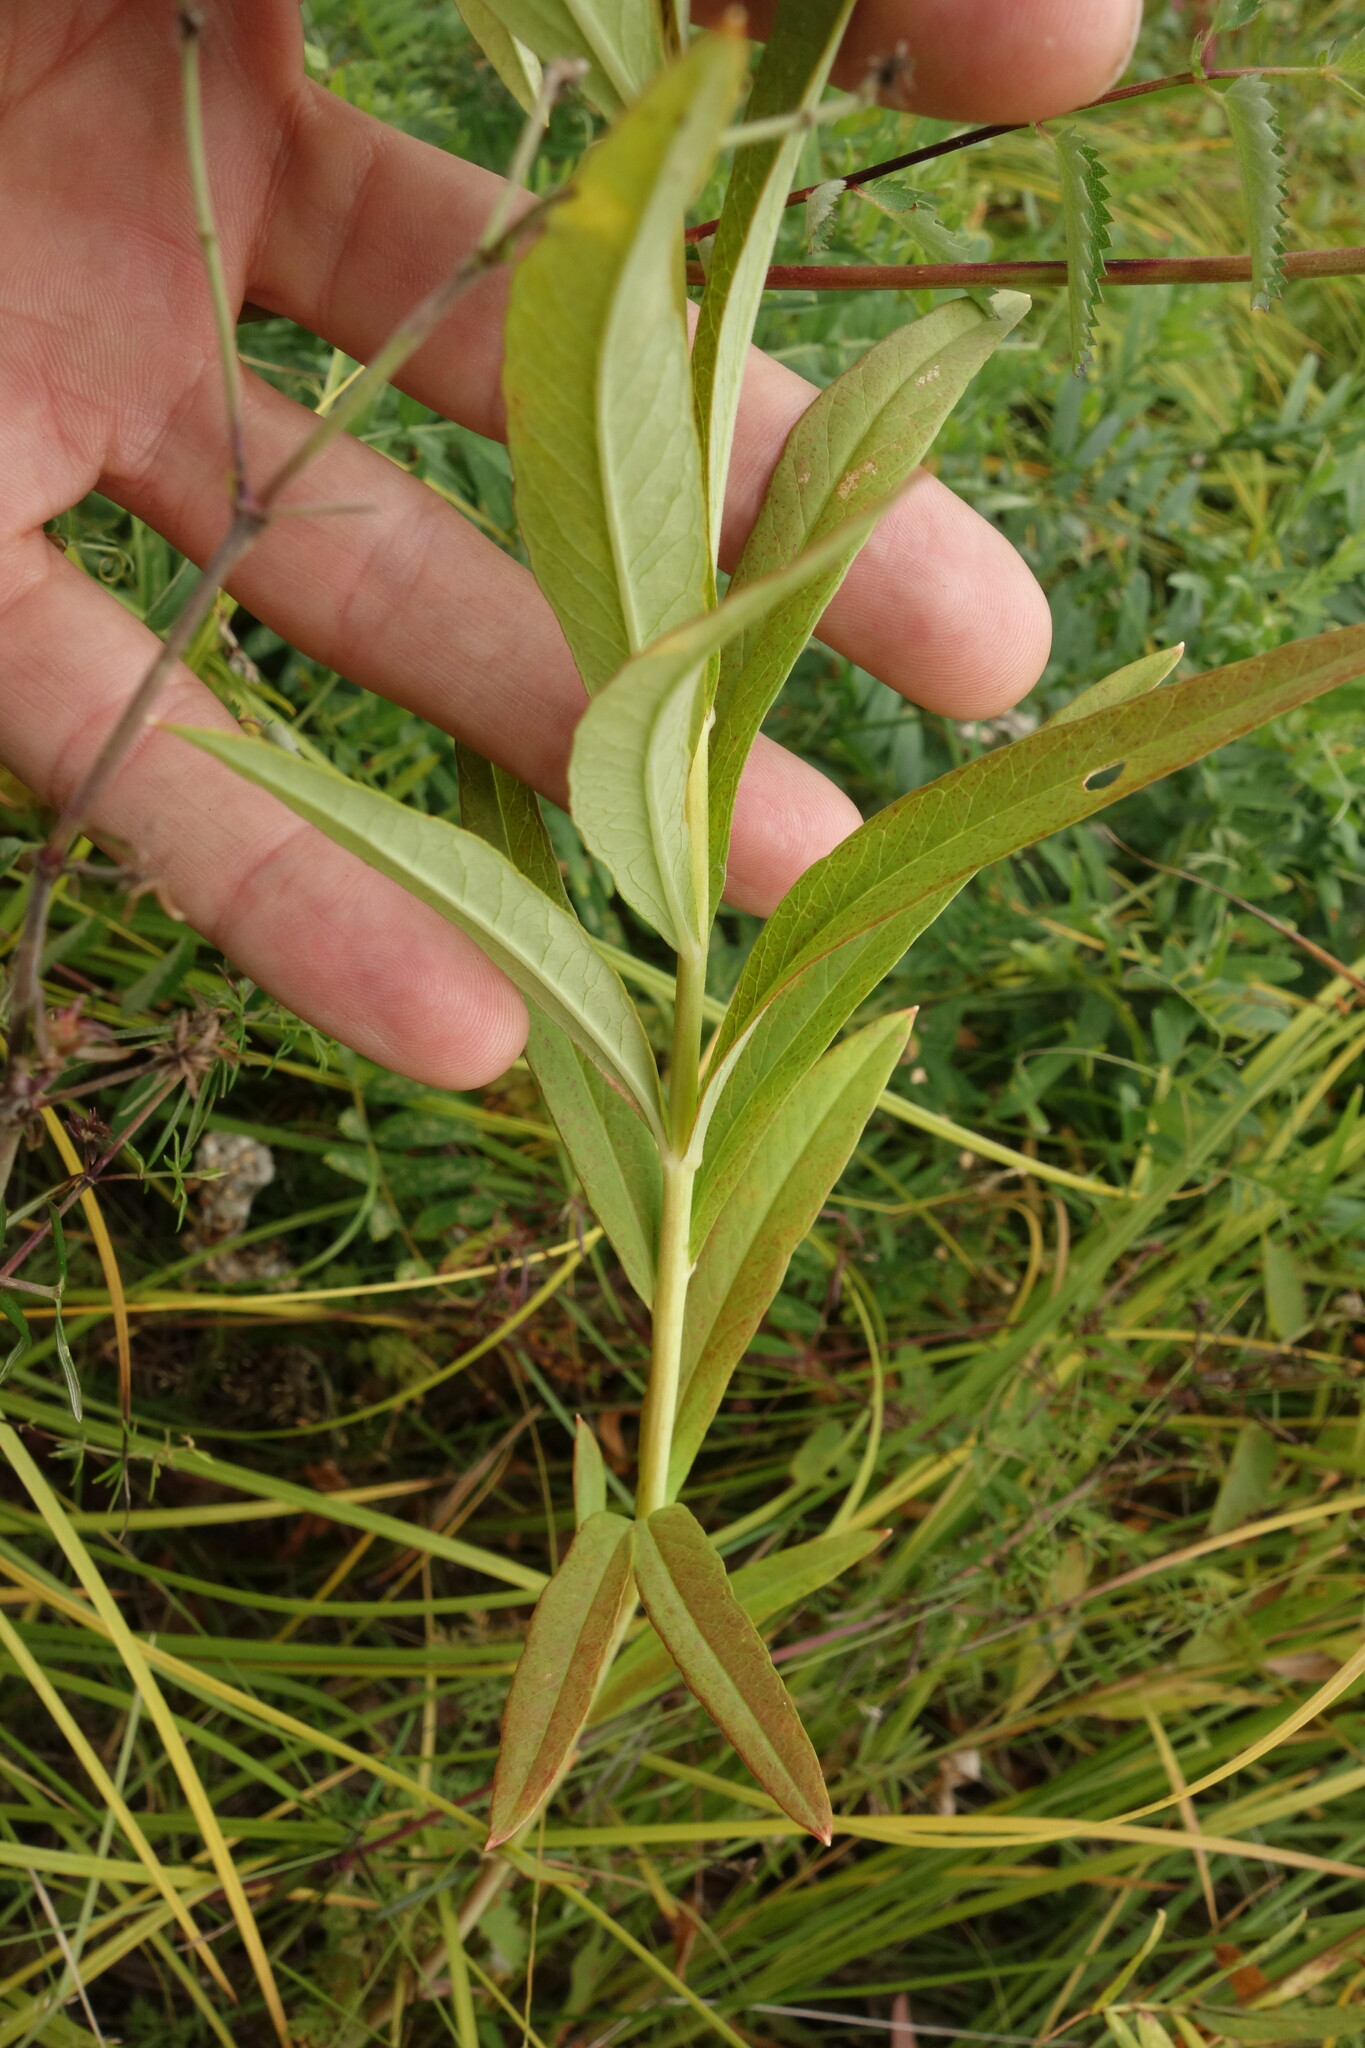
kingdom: Plantae
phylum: Tracheophyta
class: Magnoliopsida
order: Ericales
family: Primulaceae
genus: Lysimachia
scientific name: Lysimachia davurica
